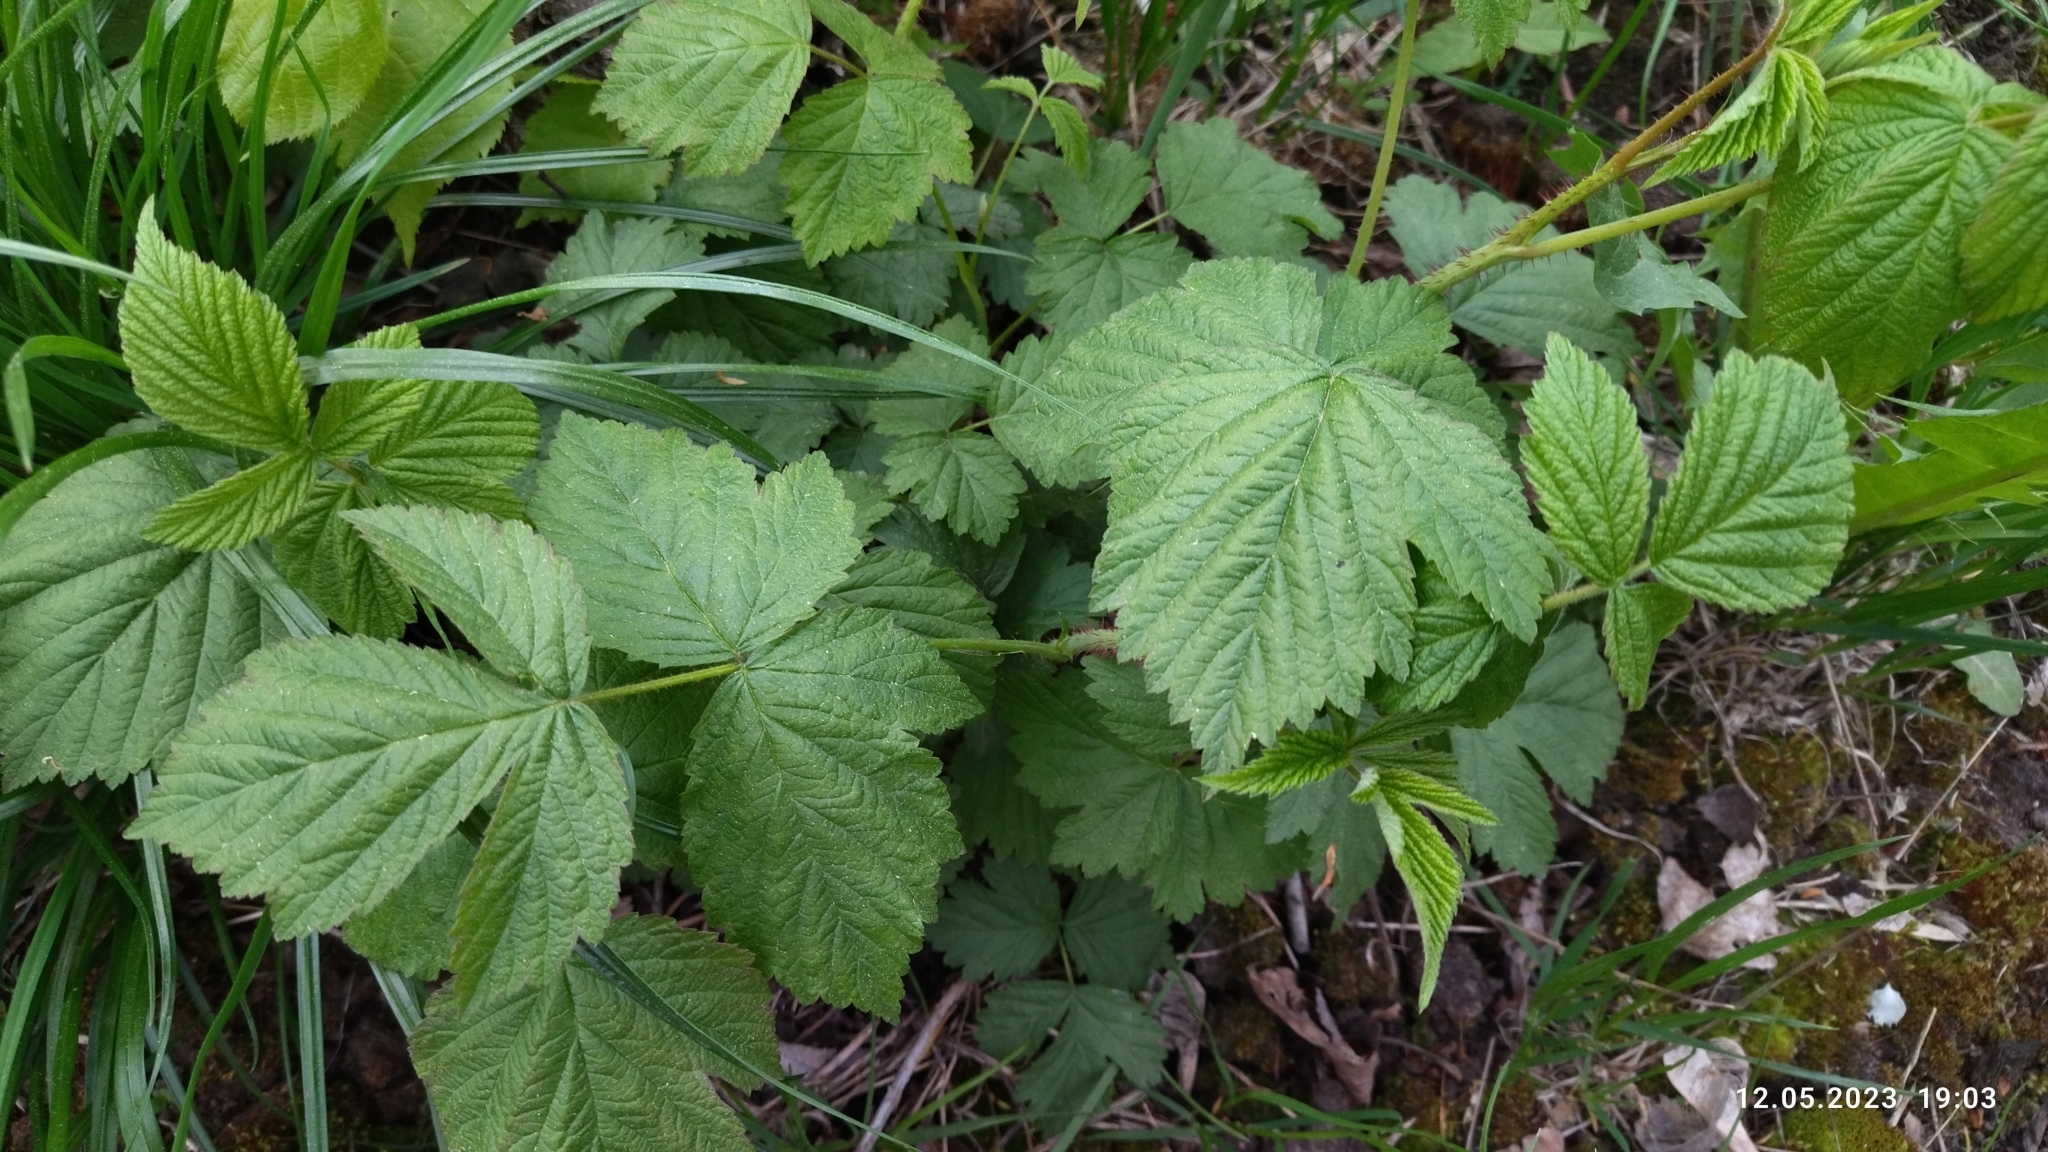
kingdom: Plantae
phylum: Tracheophyta
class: Magnoliopsida
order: Rosales
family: Rosaceae
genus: Rubus
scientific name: Rubus caesius
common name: Dewberry
